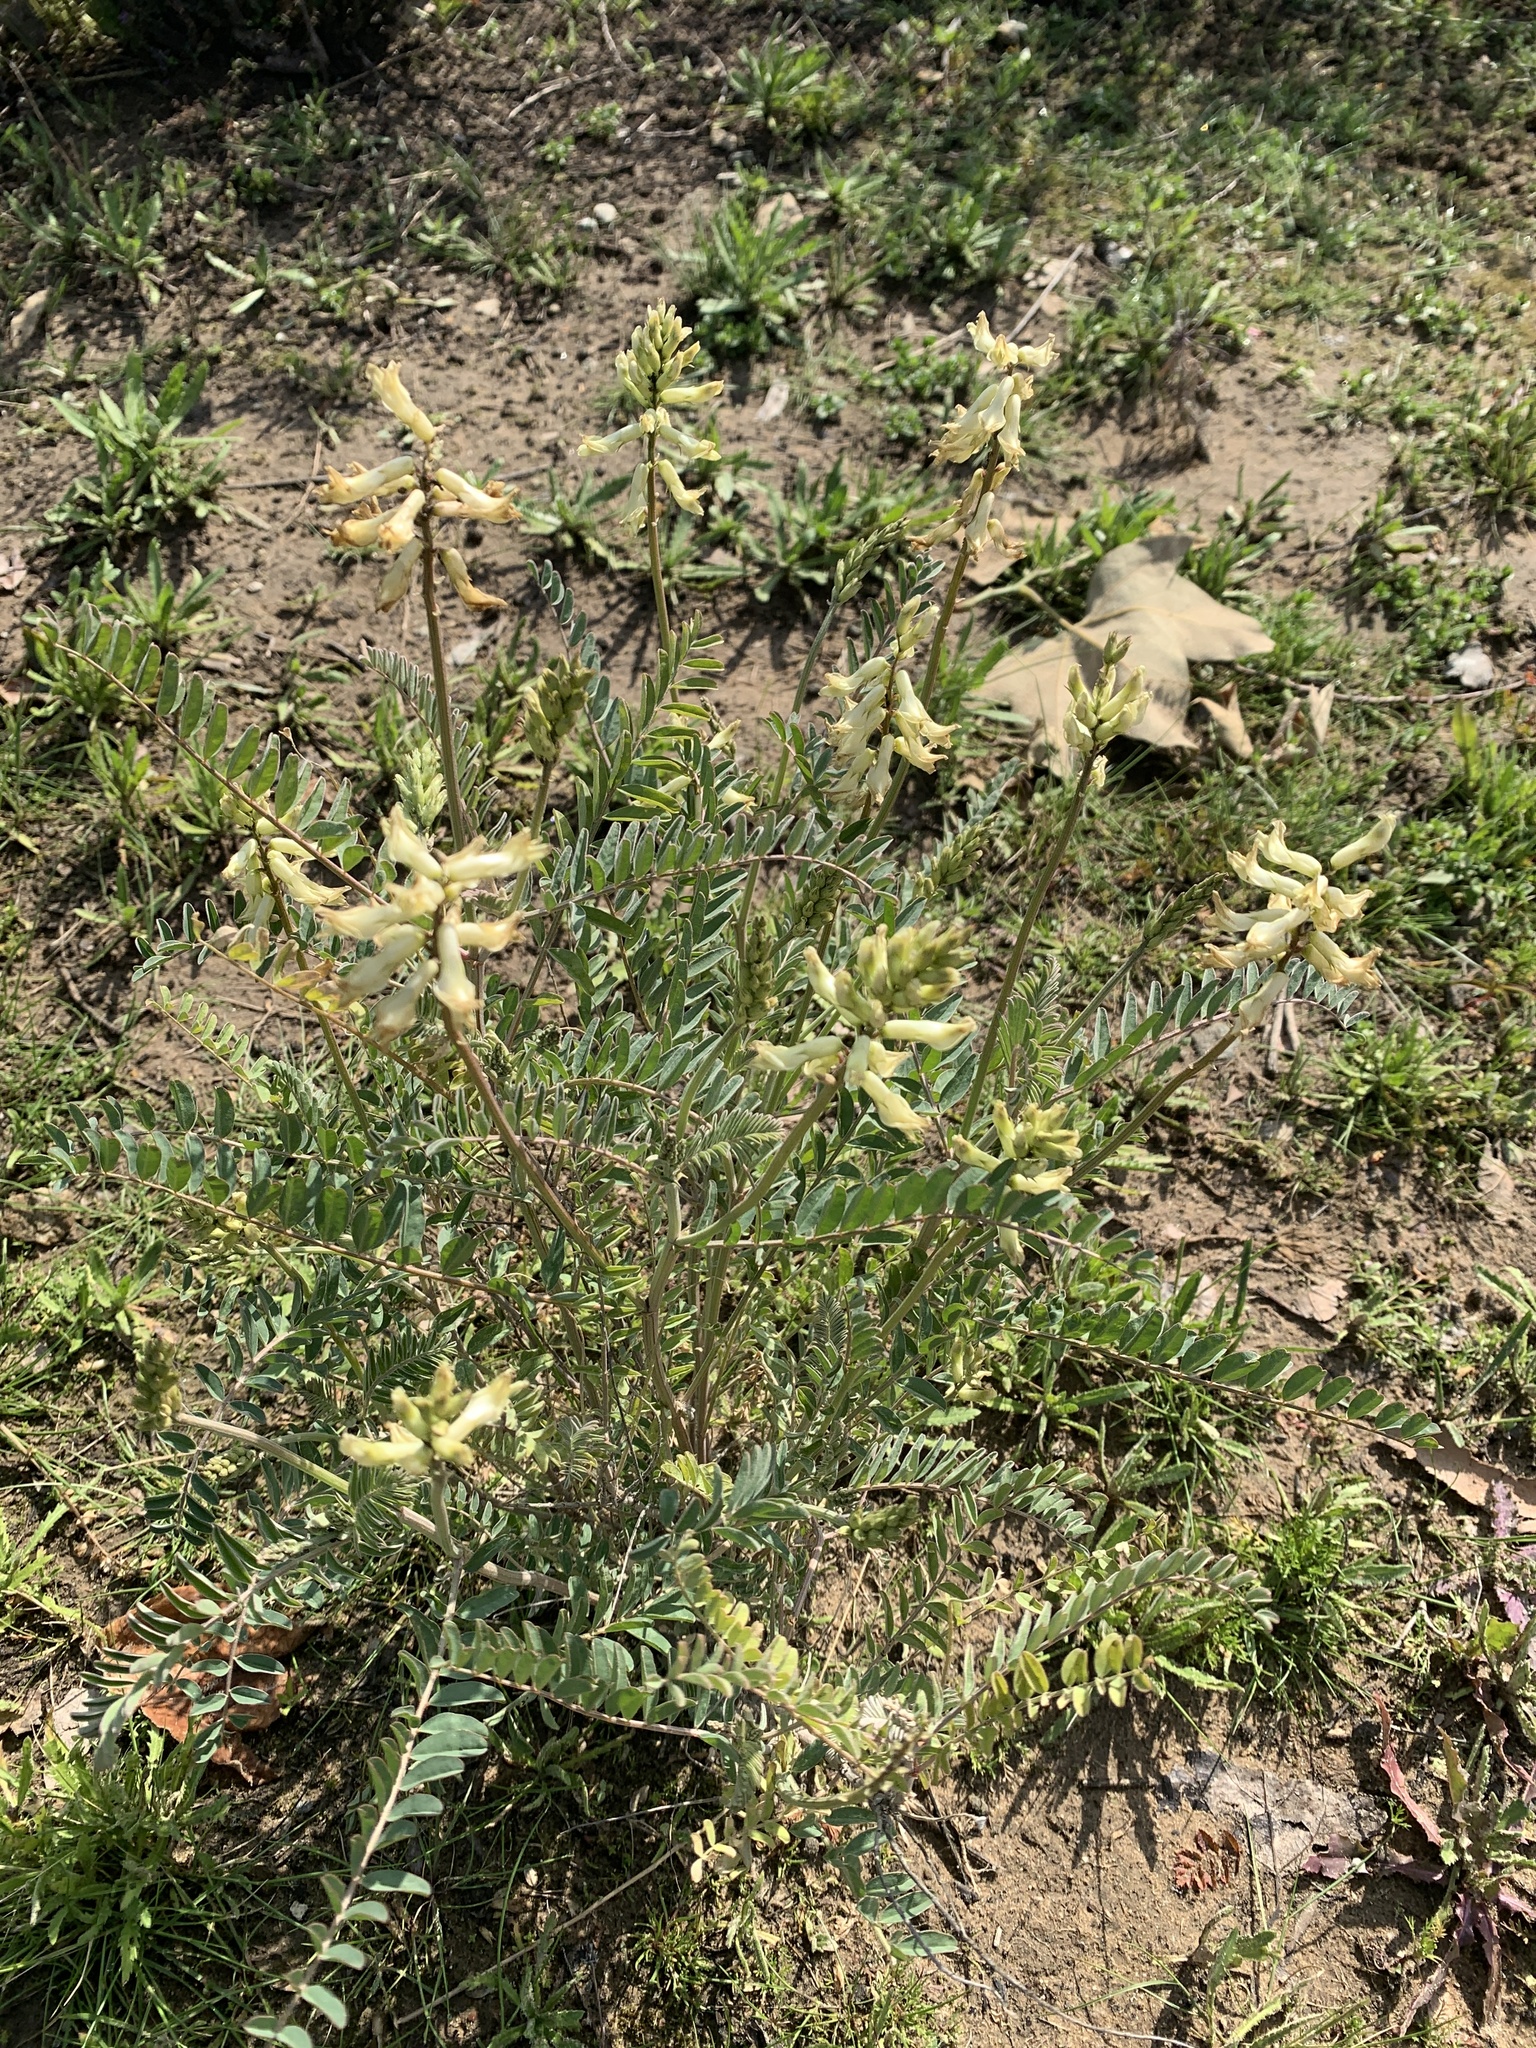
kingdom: Plantae
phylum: Tracheophyta
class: Magnoliopsida
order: Fabales
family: Fabaceae
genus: Astragalus
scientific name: Astragalus trichopodus
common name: Santa barbara milk-vetch
